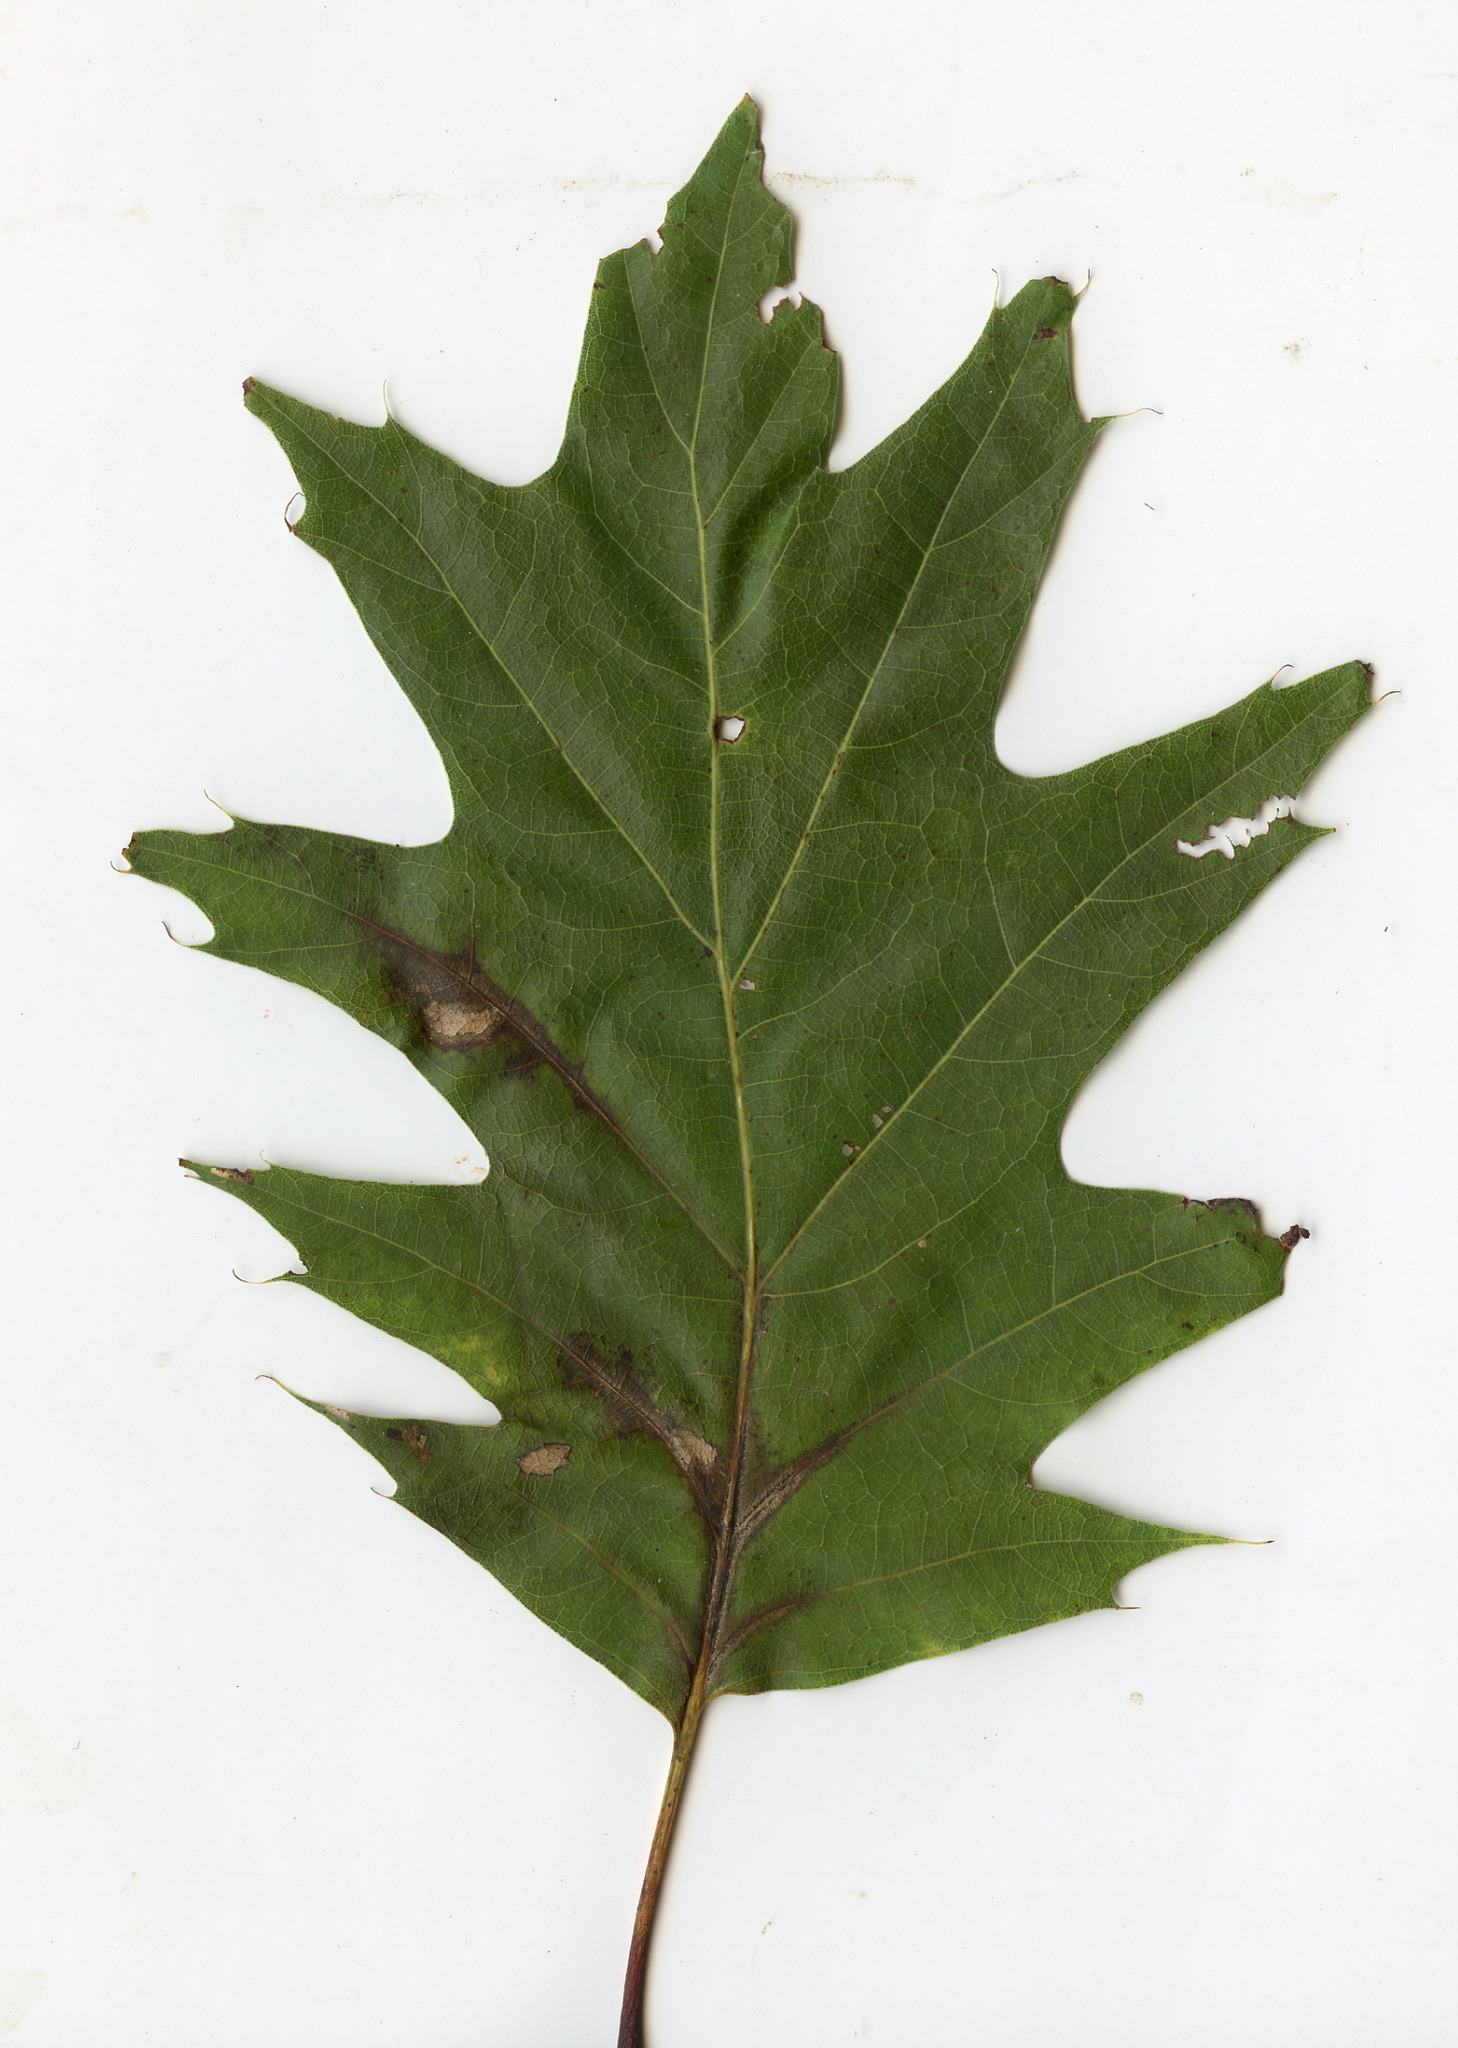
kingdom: Plantae
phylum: Tracheophyta
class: Magnoliopsida
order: Fagales
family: Fagaceae
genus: Quercus
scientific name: Quercus rubra
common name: Red oak
